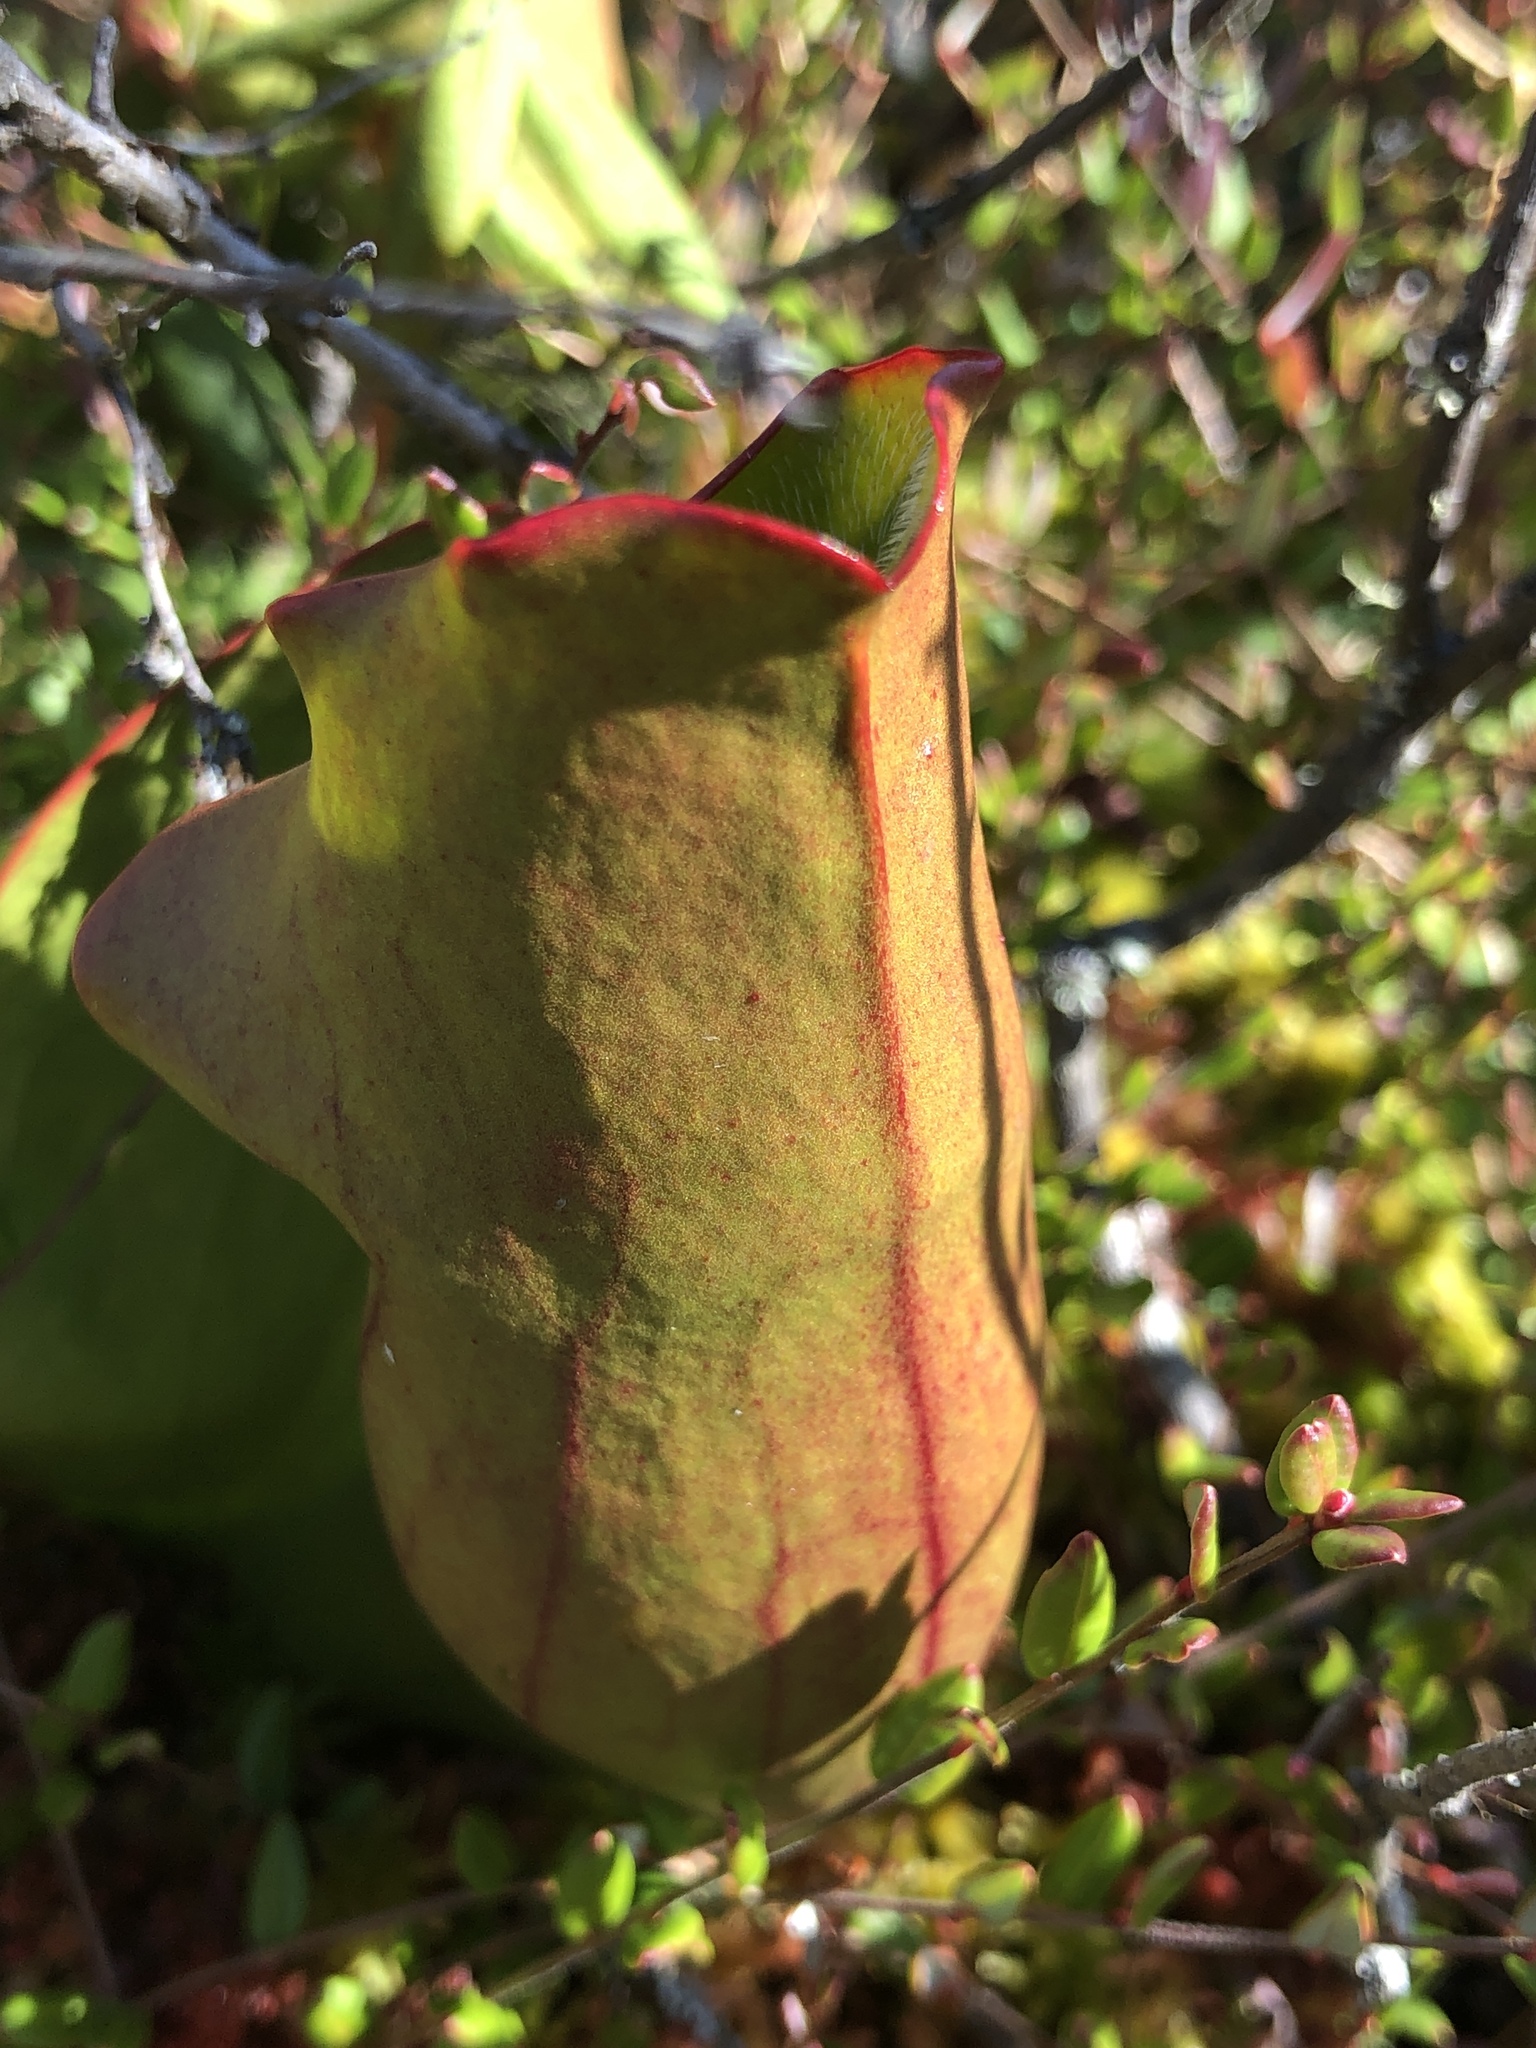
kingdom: Plantae
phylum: Tracheophyta
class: Magnoliopsida
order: Ericales
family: Sarraceniaceae
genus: Sarracenia
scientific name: Sarracenia purpurea
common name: Pitcherplant
